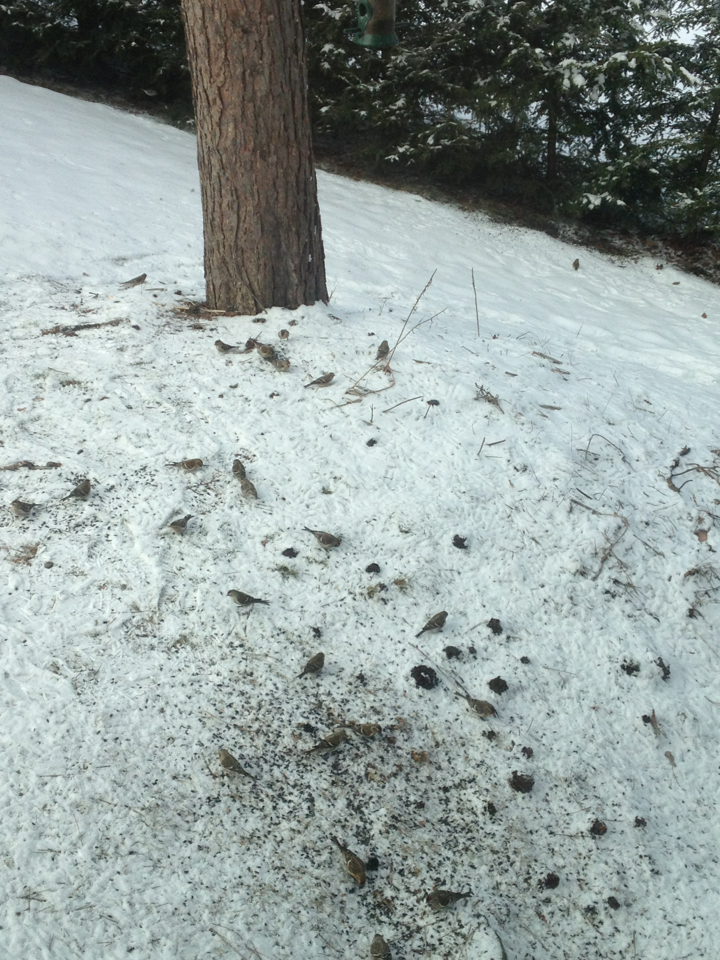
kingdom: Animalia
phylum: Chordata
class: Aves
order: Passeriformes
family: Fringillidae
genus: Acanthis
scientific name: Acanthis flammea
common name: Common redpoll
